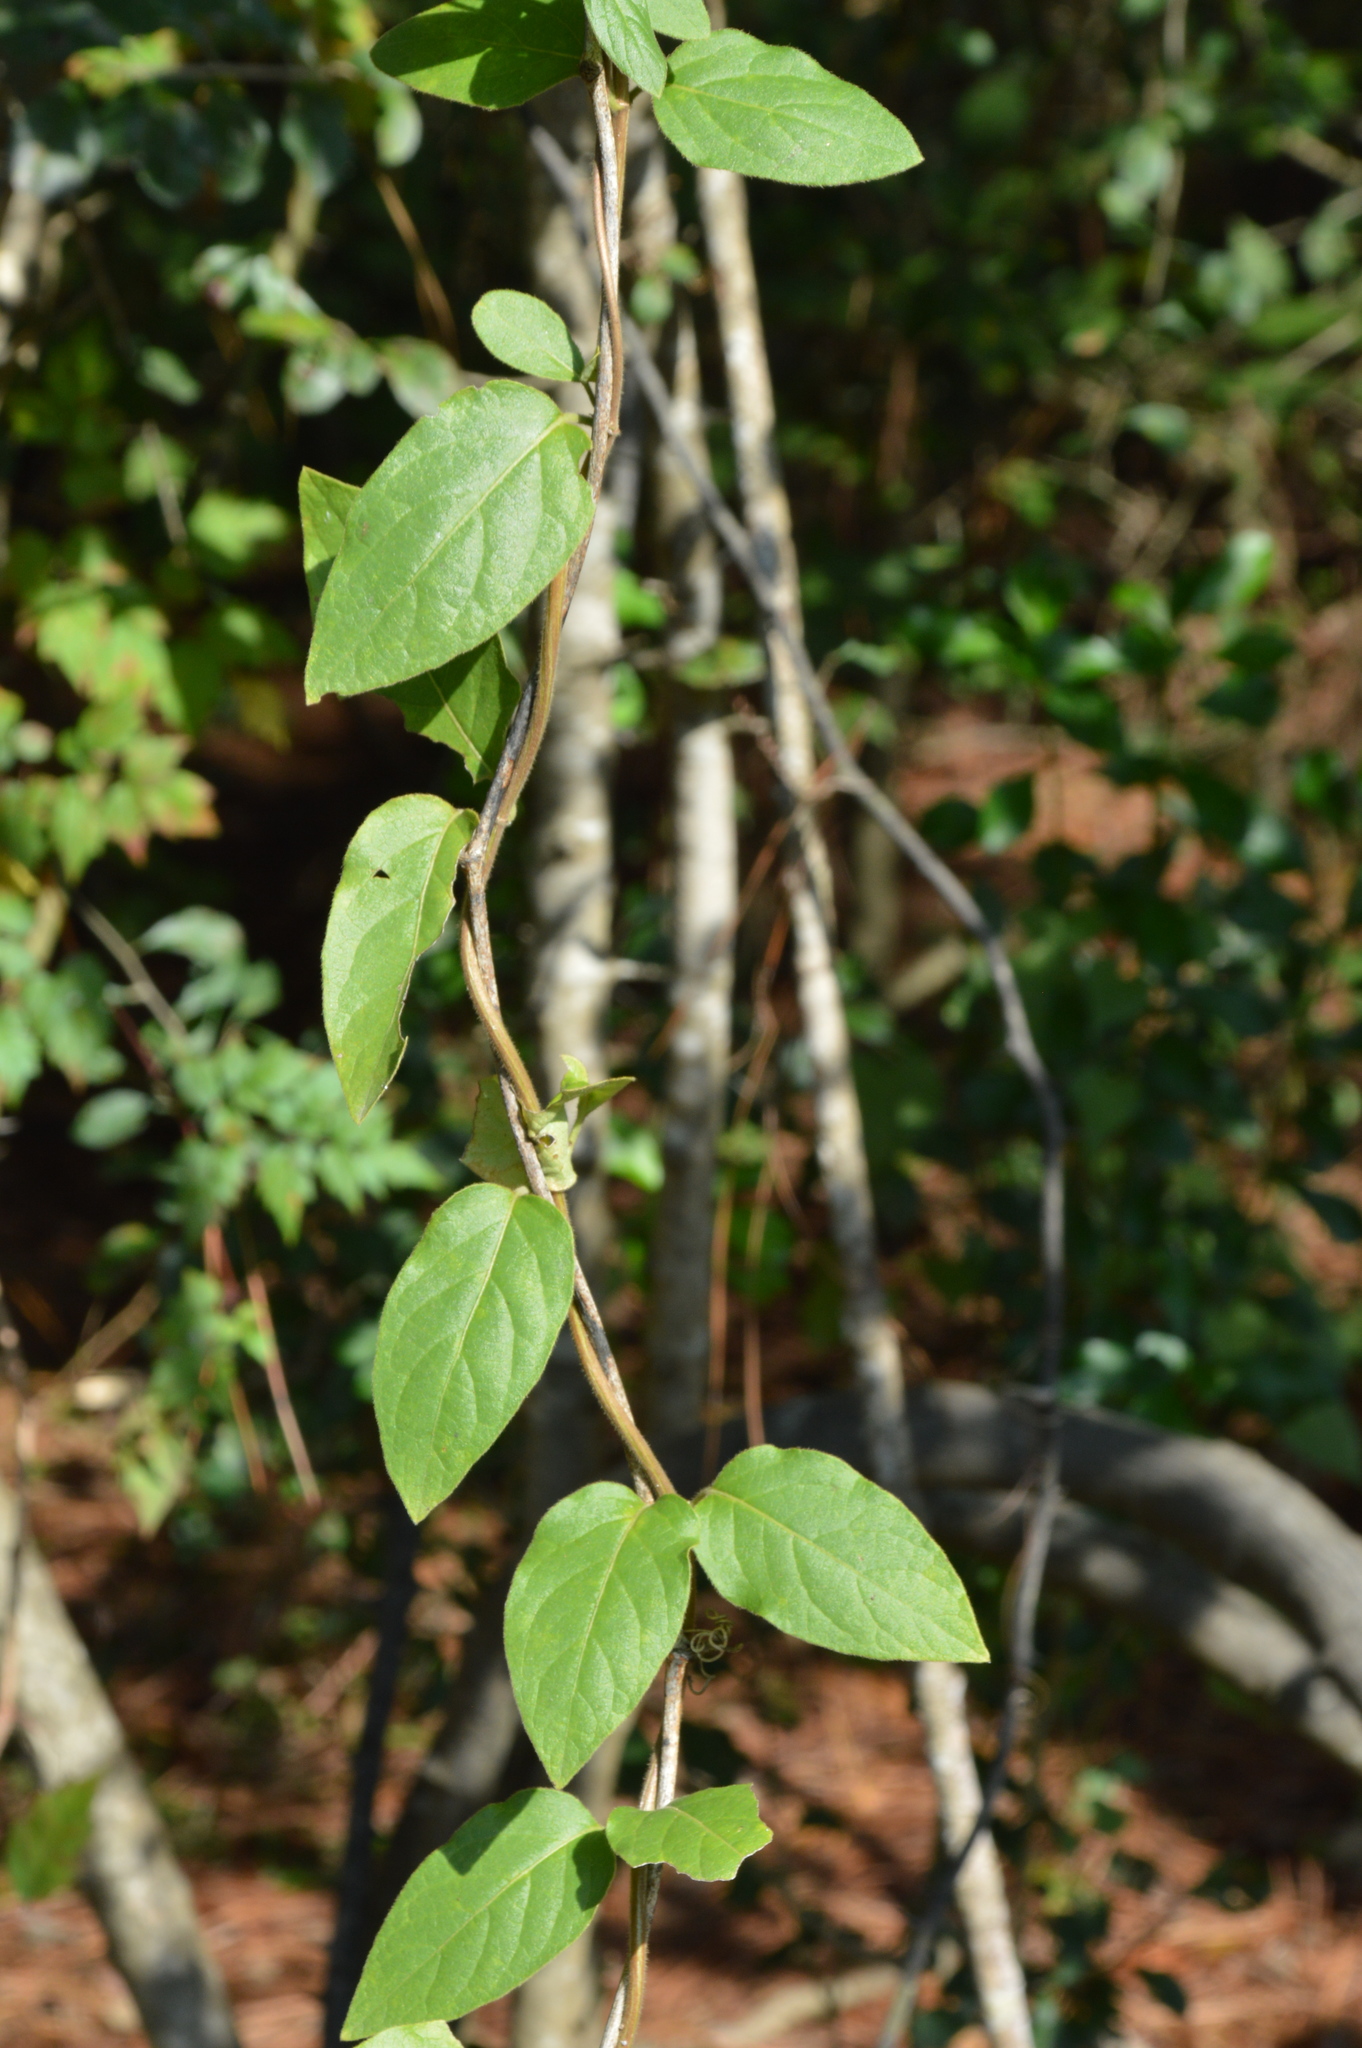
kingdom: Plantae
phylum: Tracheophyta
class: Magnoliopsida
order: Dipsacales
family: Caprifoliaceae
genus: Lonicera
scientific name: Lonicera japonica
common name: Japanese honeysuckle
